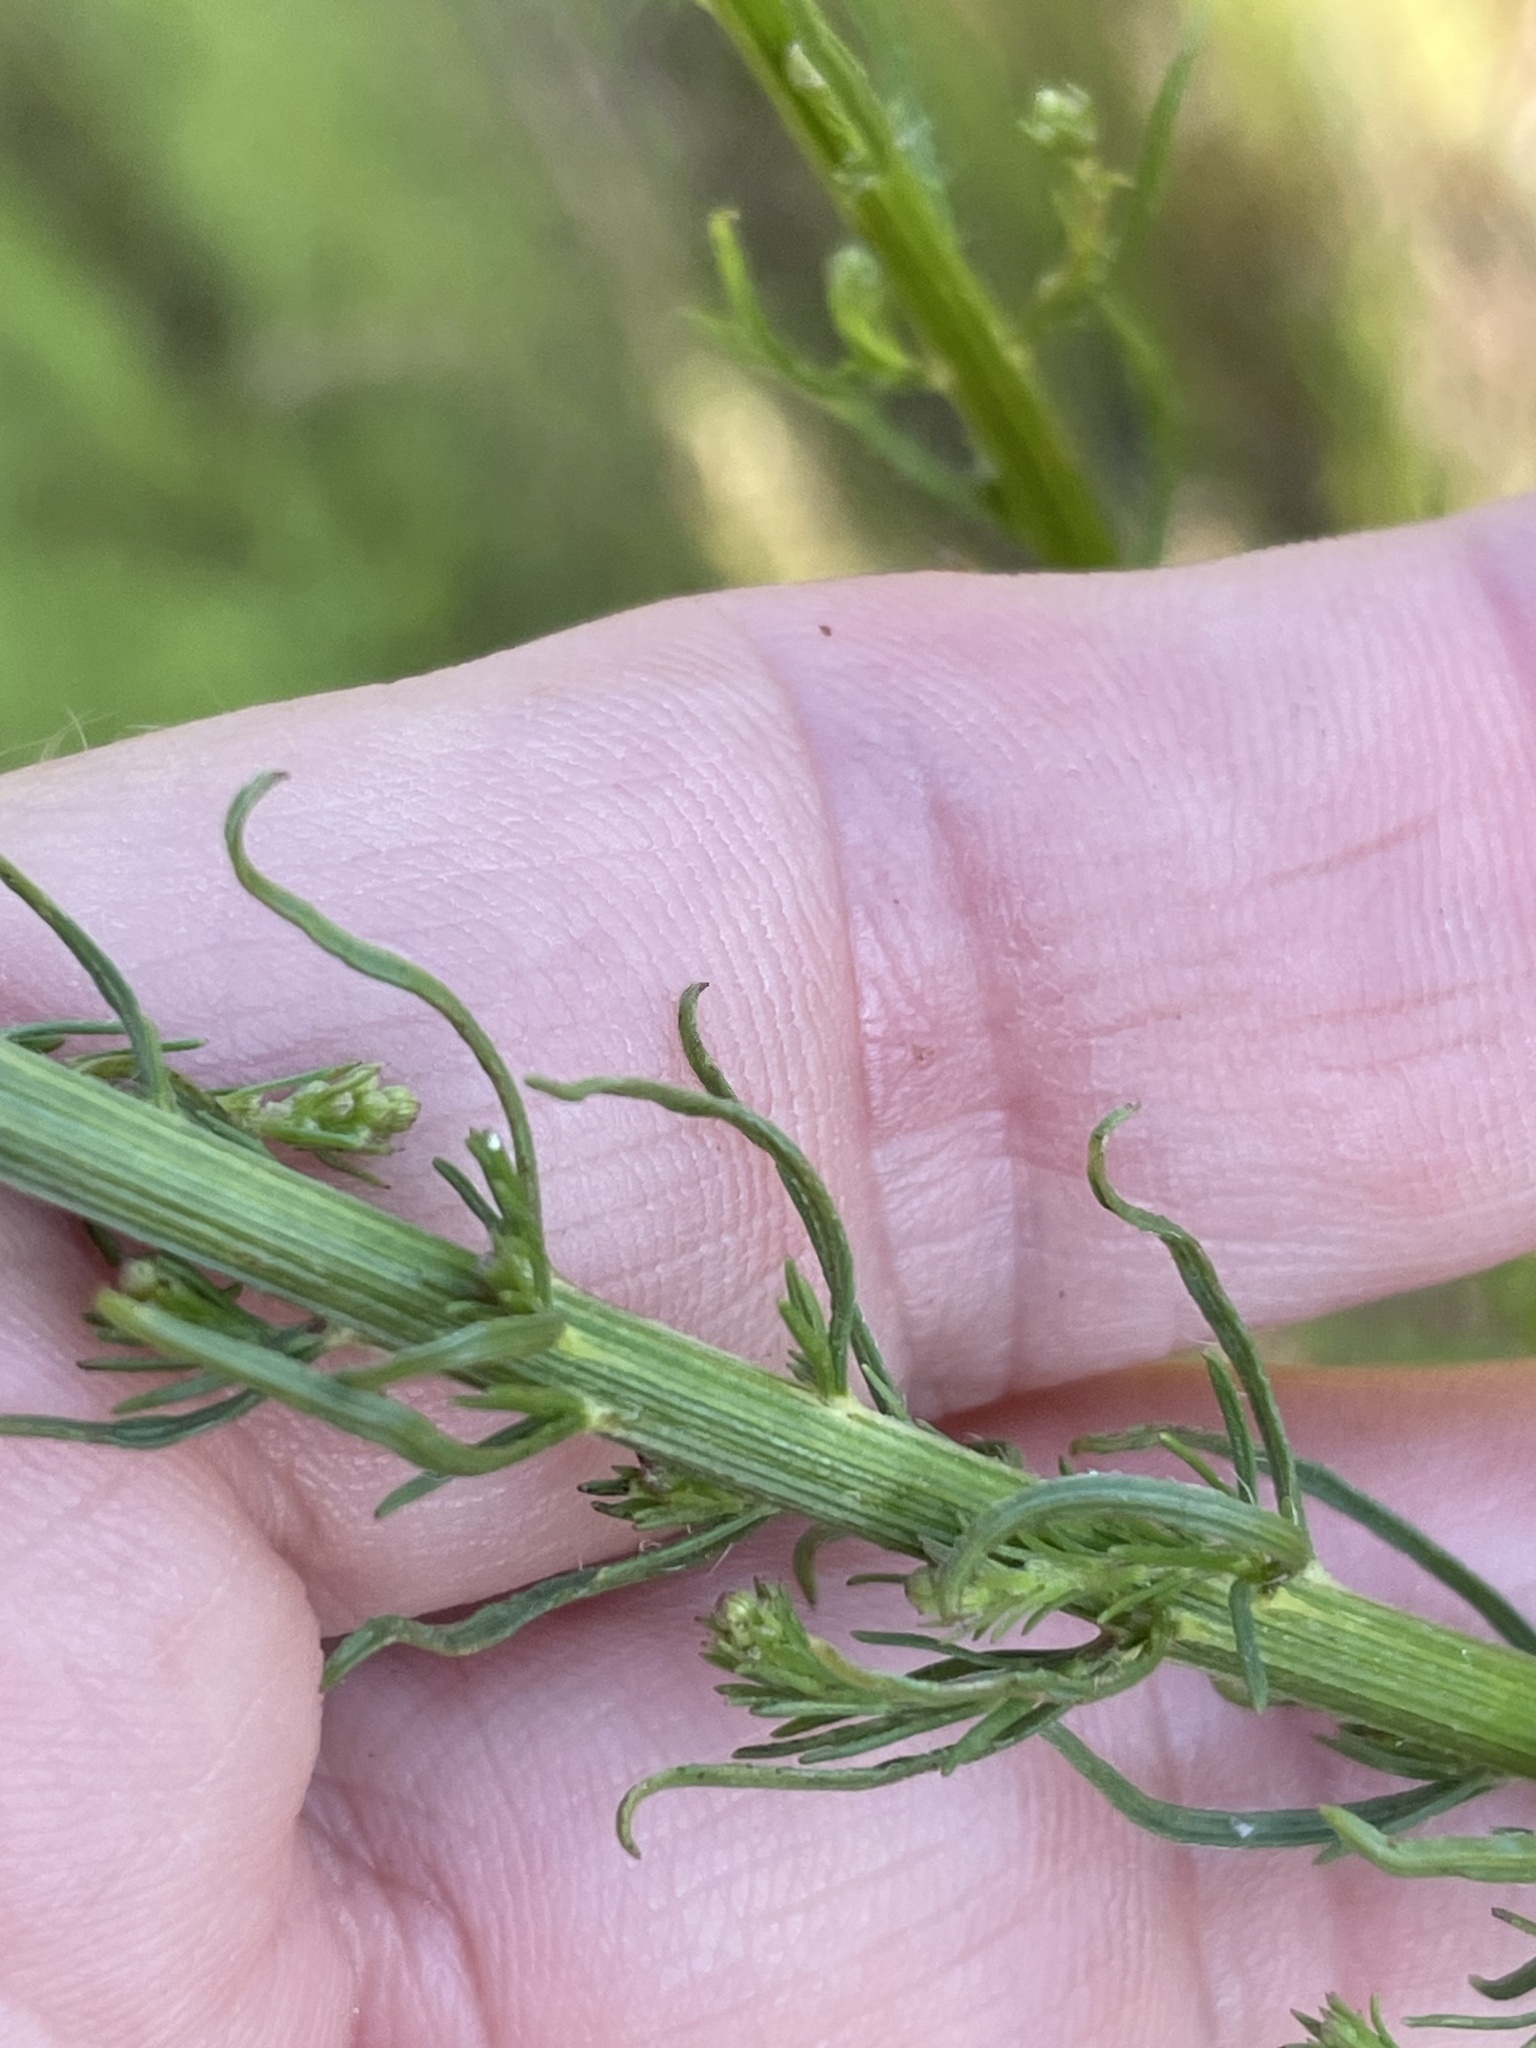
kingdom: Plantae
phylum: Tracheophyta
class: Magnoliopsida
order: Asterales
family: Asteraceae
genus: Liatris
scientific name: Liatris pilosa
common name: Grass-leaf gayfeather
